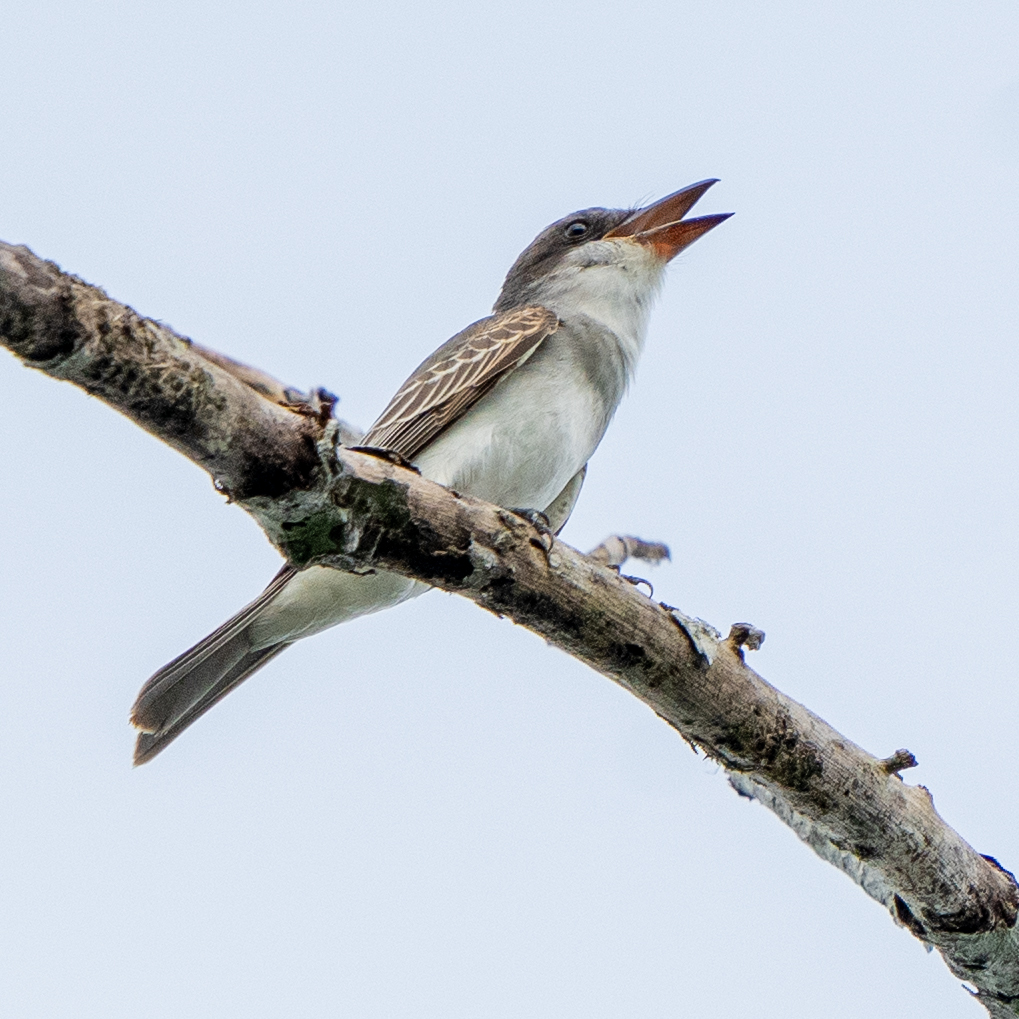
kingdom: Animalia
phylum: Chordata
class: Aves
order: Passeriformes
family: Tyrannidae
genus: Tyrannus
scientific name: Tyrannus dominicensis
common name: Gray kingbird
